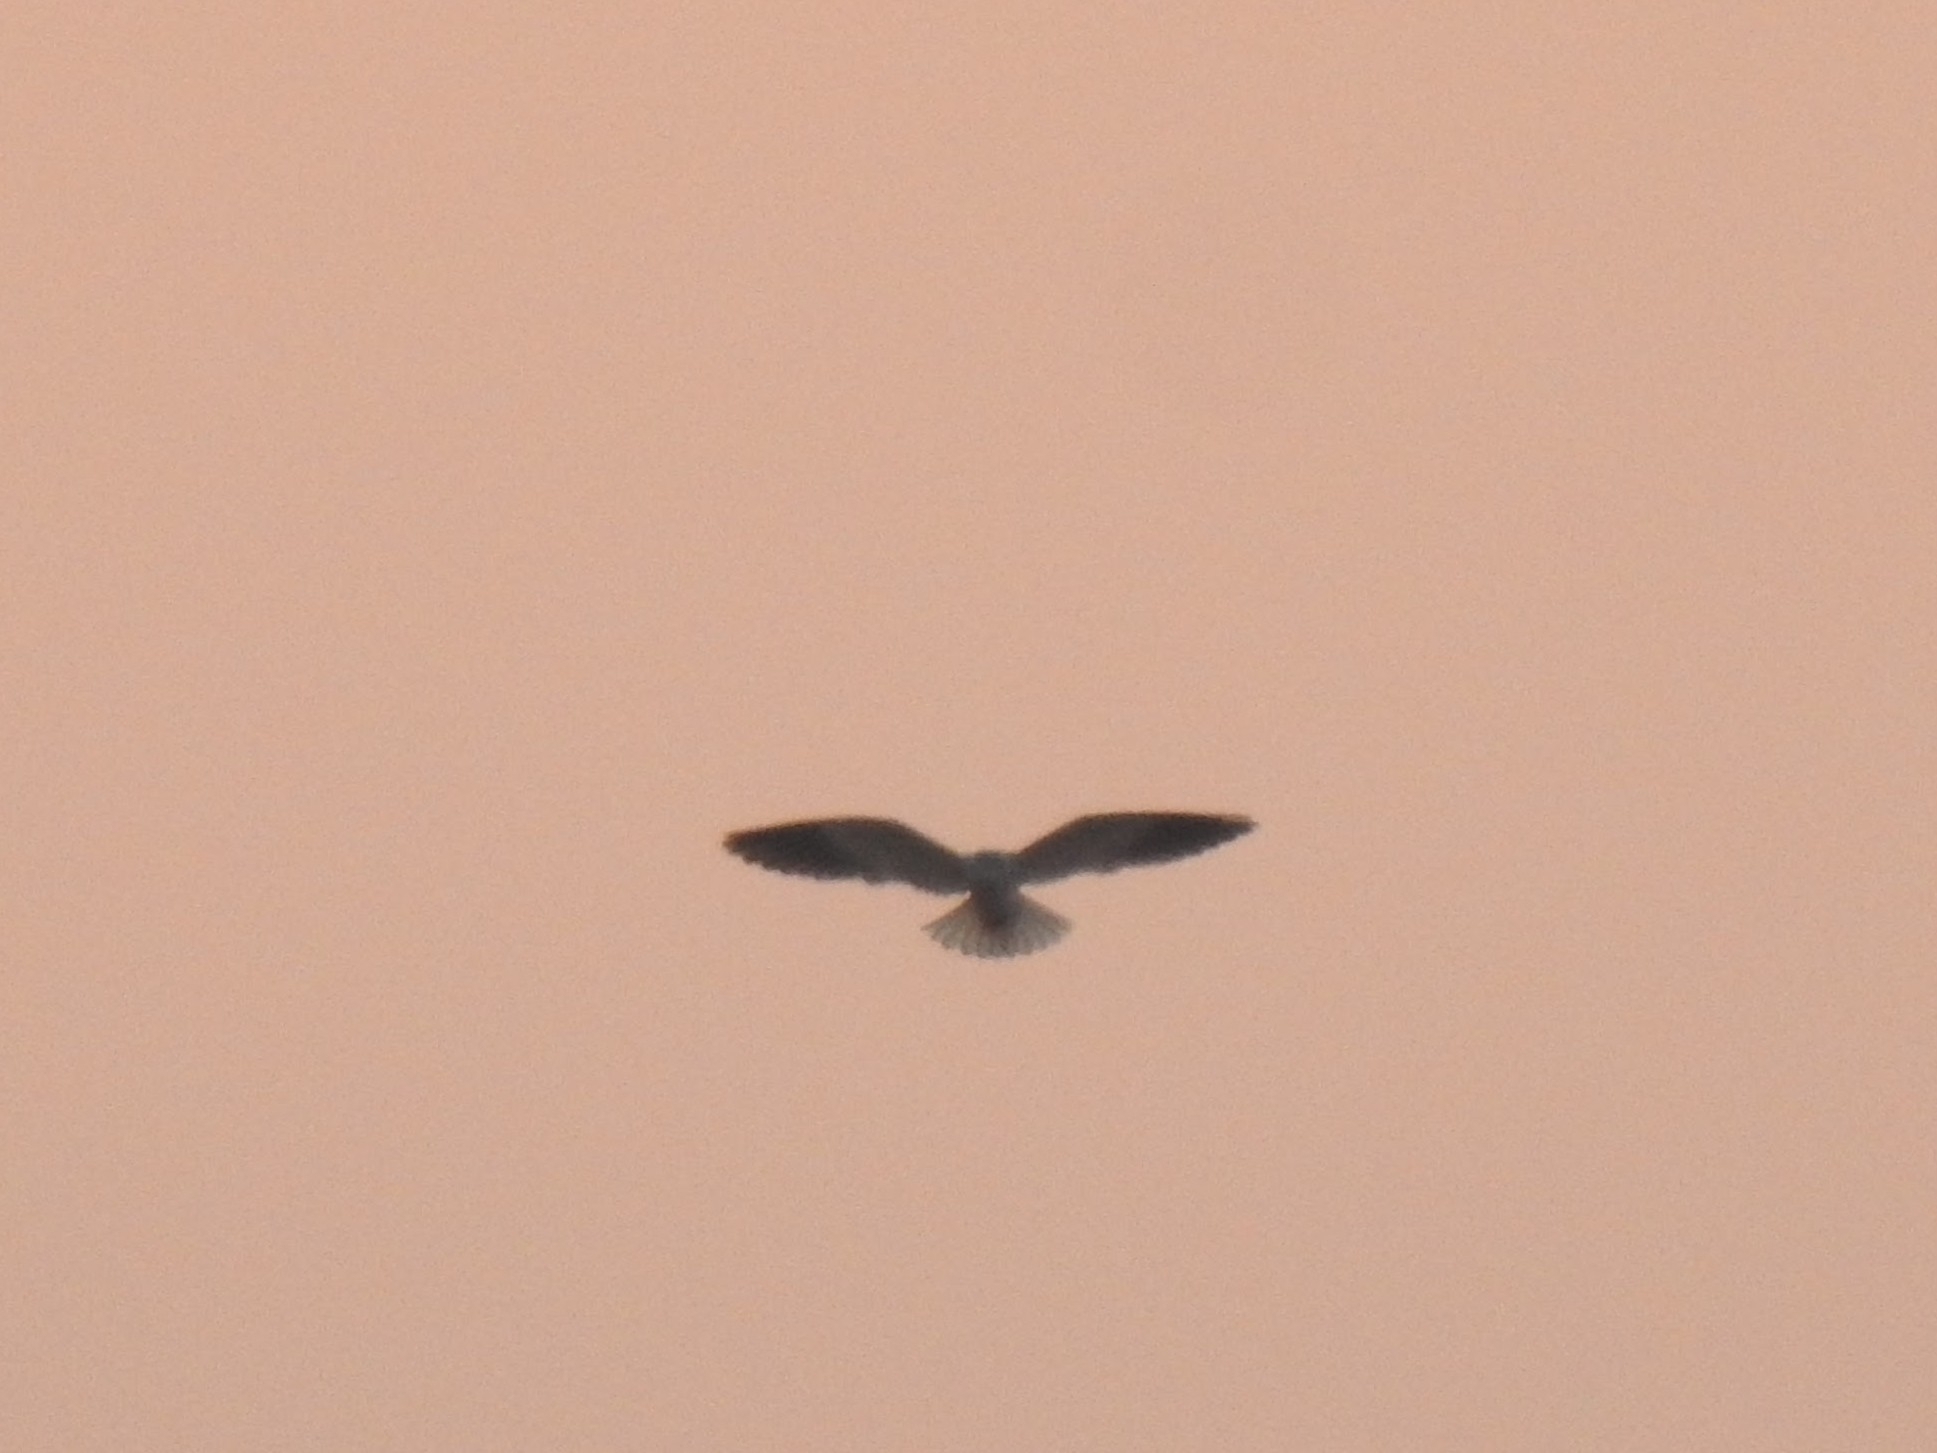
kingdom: Animalia
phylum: Chordata
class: Aves
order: Accipitriformes
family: Accipitridae
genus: Elanus
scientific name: Elanus caeruleus
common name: Black-winged kite
